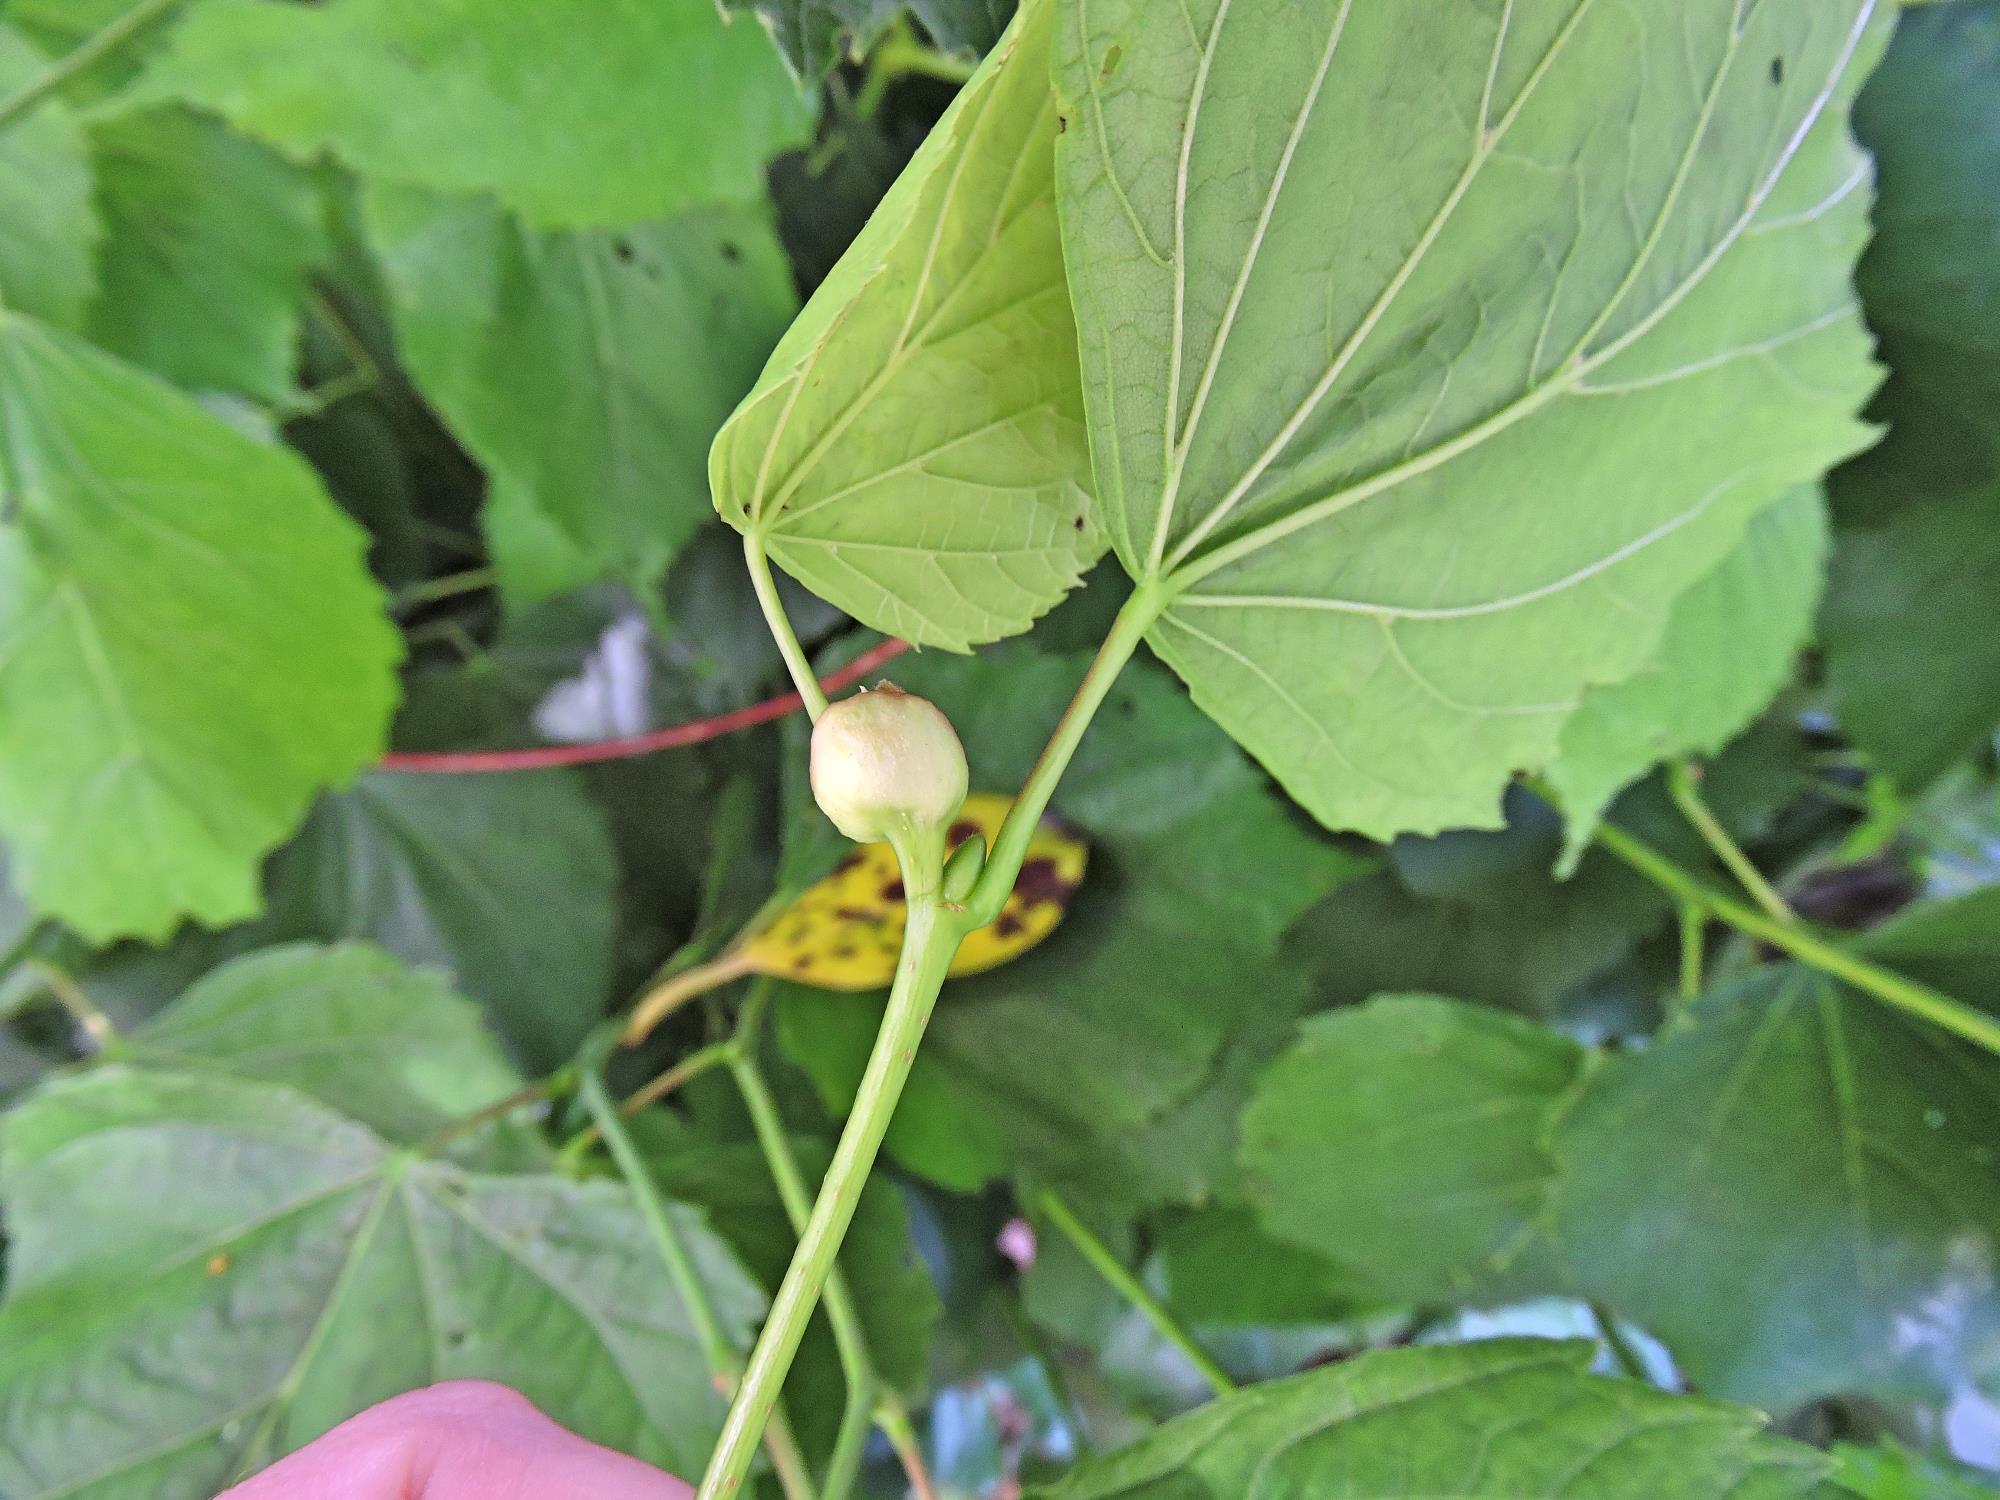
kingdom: Animalia
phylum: Arthropoda
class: Insecta
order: Diptera
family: Cecidomyiidae
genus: Contarinia
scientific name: Contarinia tiliarum
